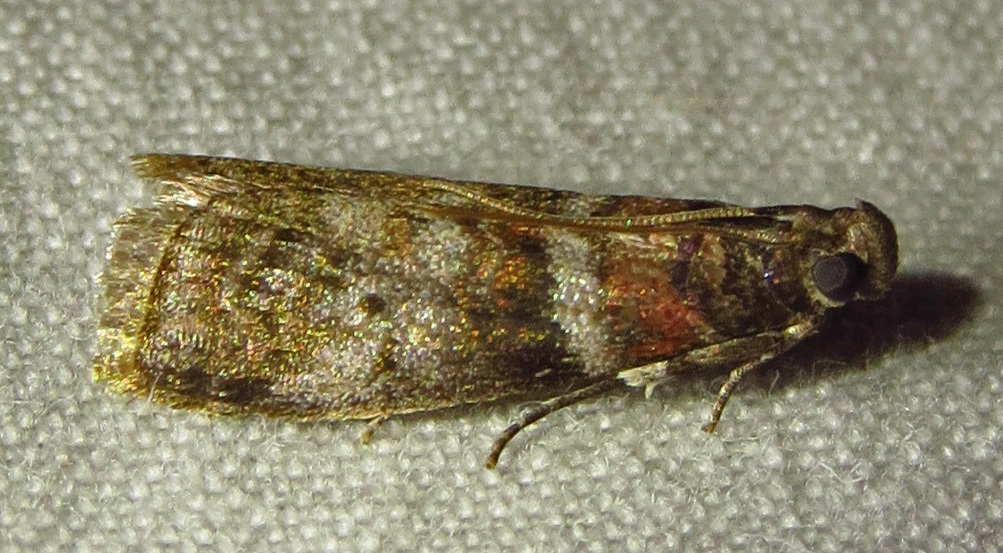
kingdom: Animalia
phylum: Arthropoda
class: Insecta
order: Lepidoptera
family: Pyralidae
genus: Sciota
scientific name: Sciota uvinella
